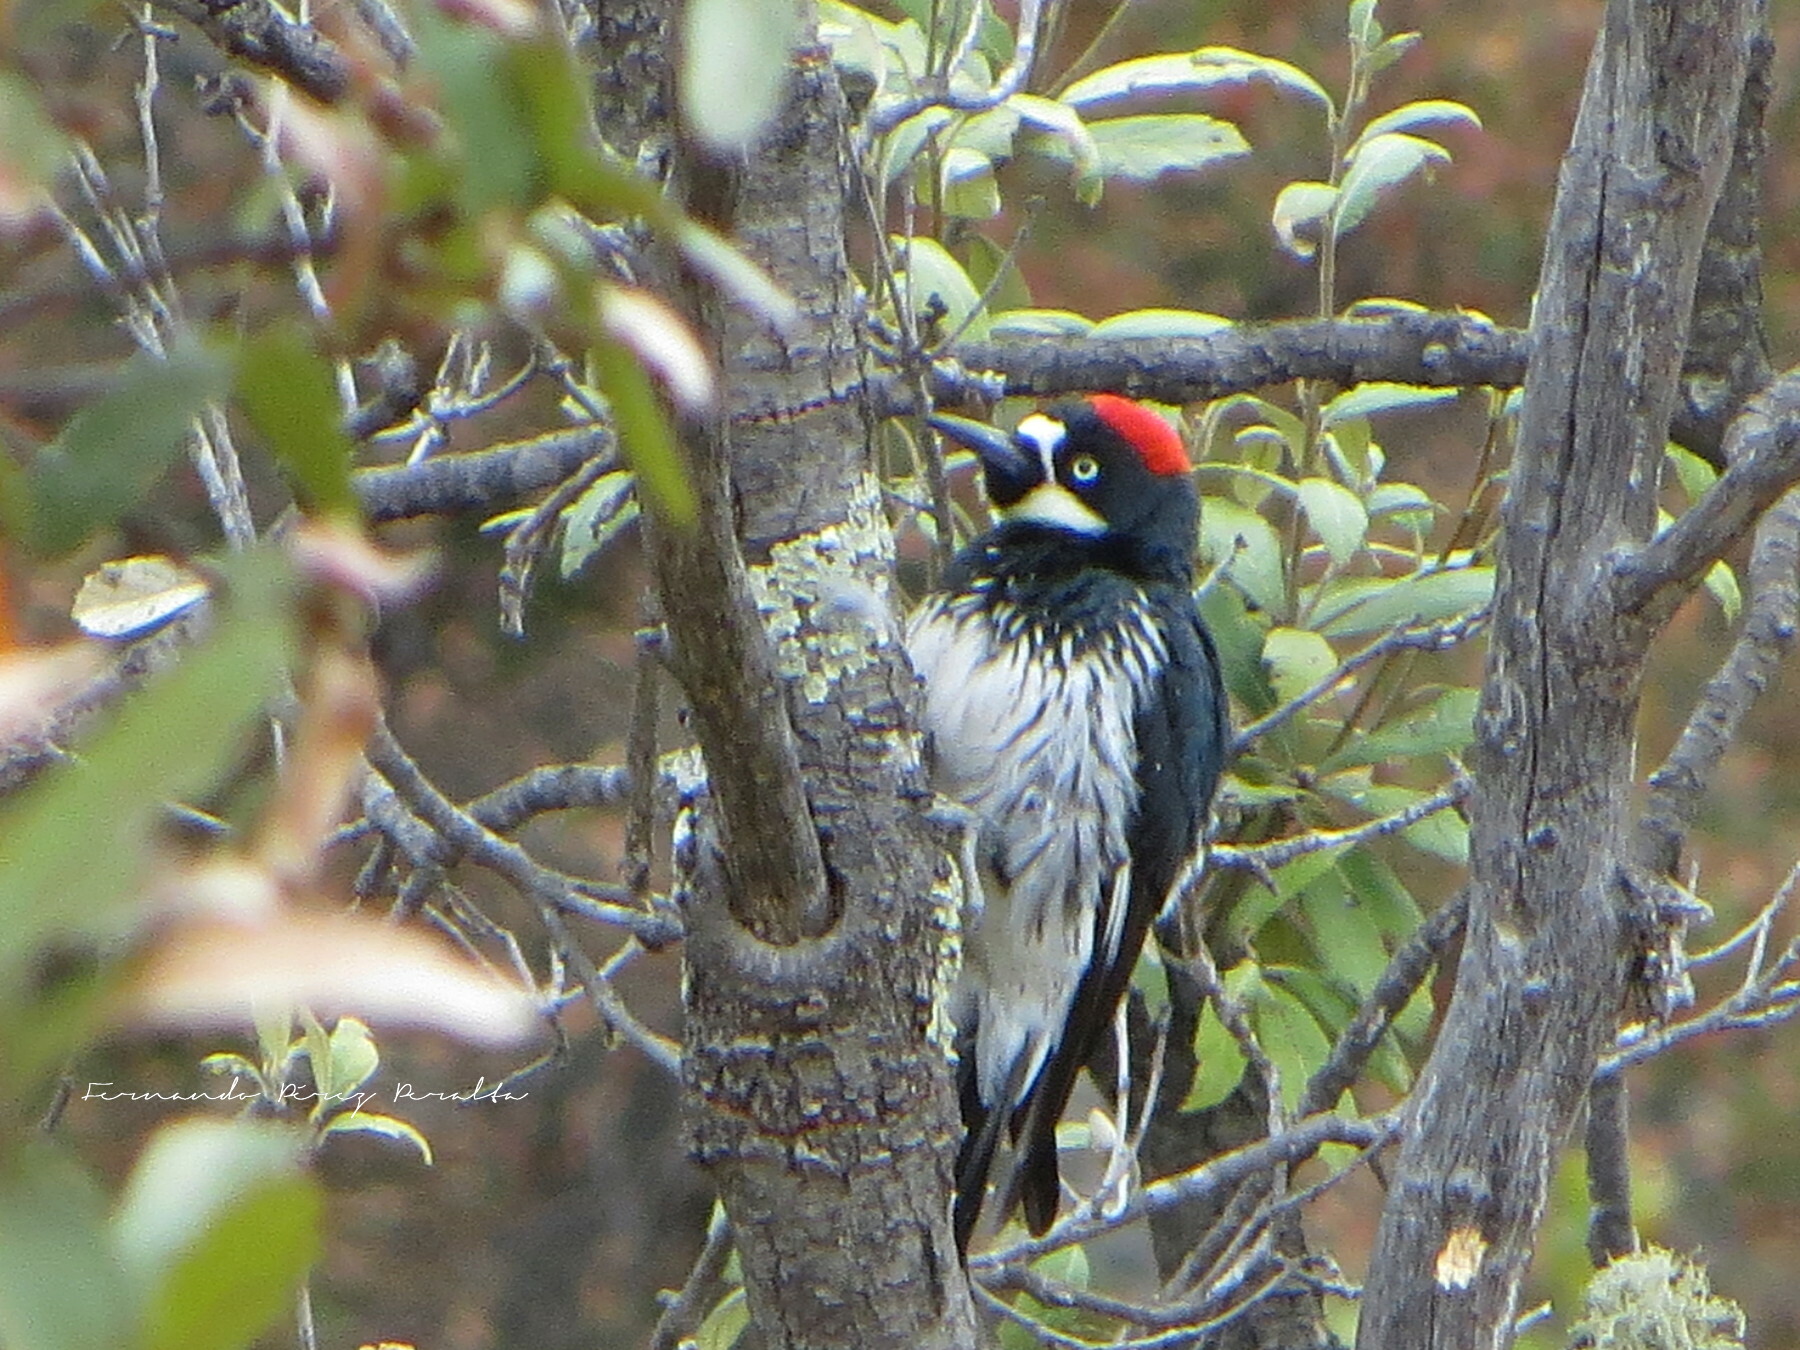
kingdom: Animalia
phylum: Chordata
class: Aves
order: Piciformes
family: Picidae
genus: Melanerpes
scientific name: Melanerpes formicivorus
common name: Acorn woodpecker
